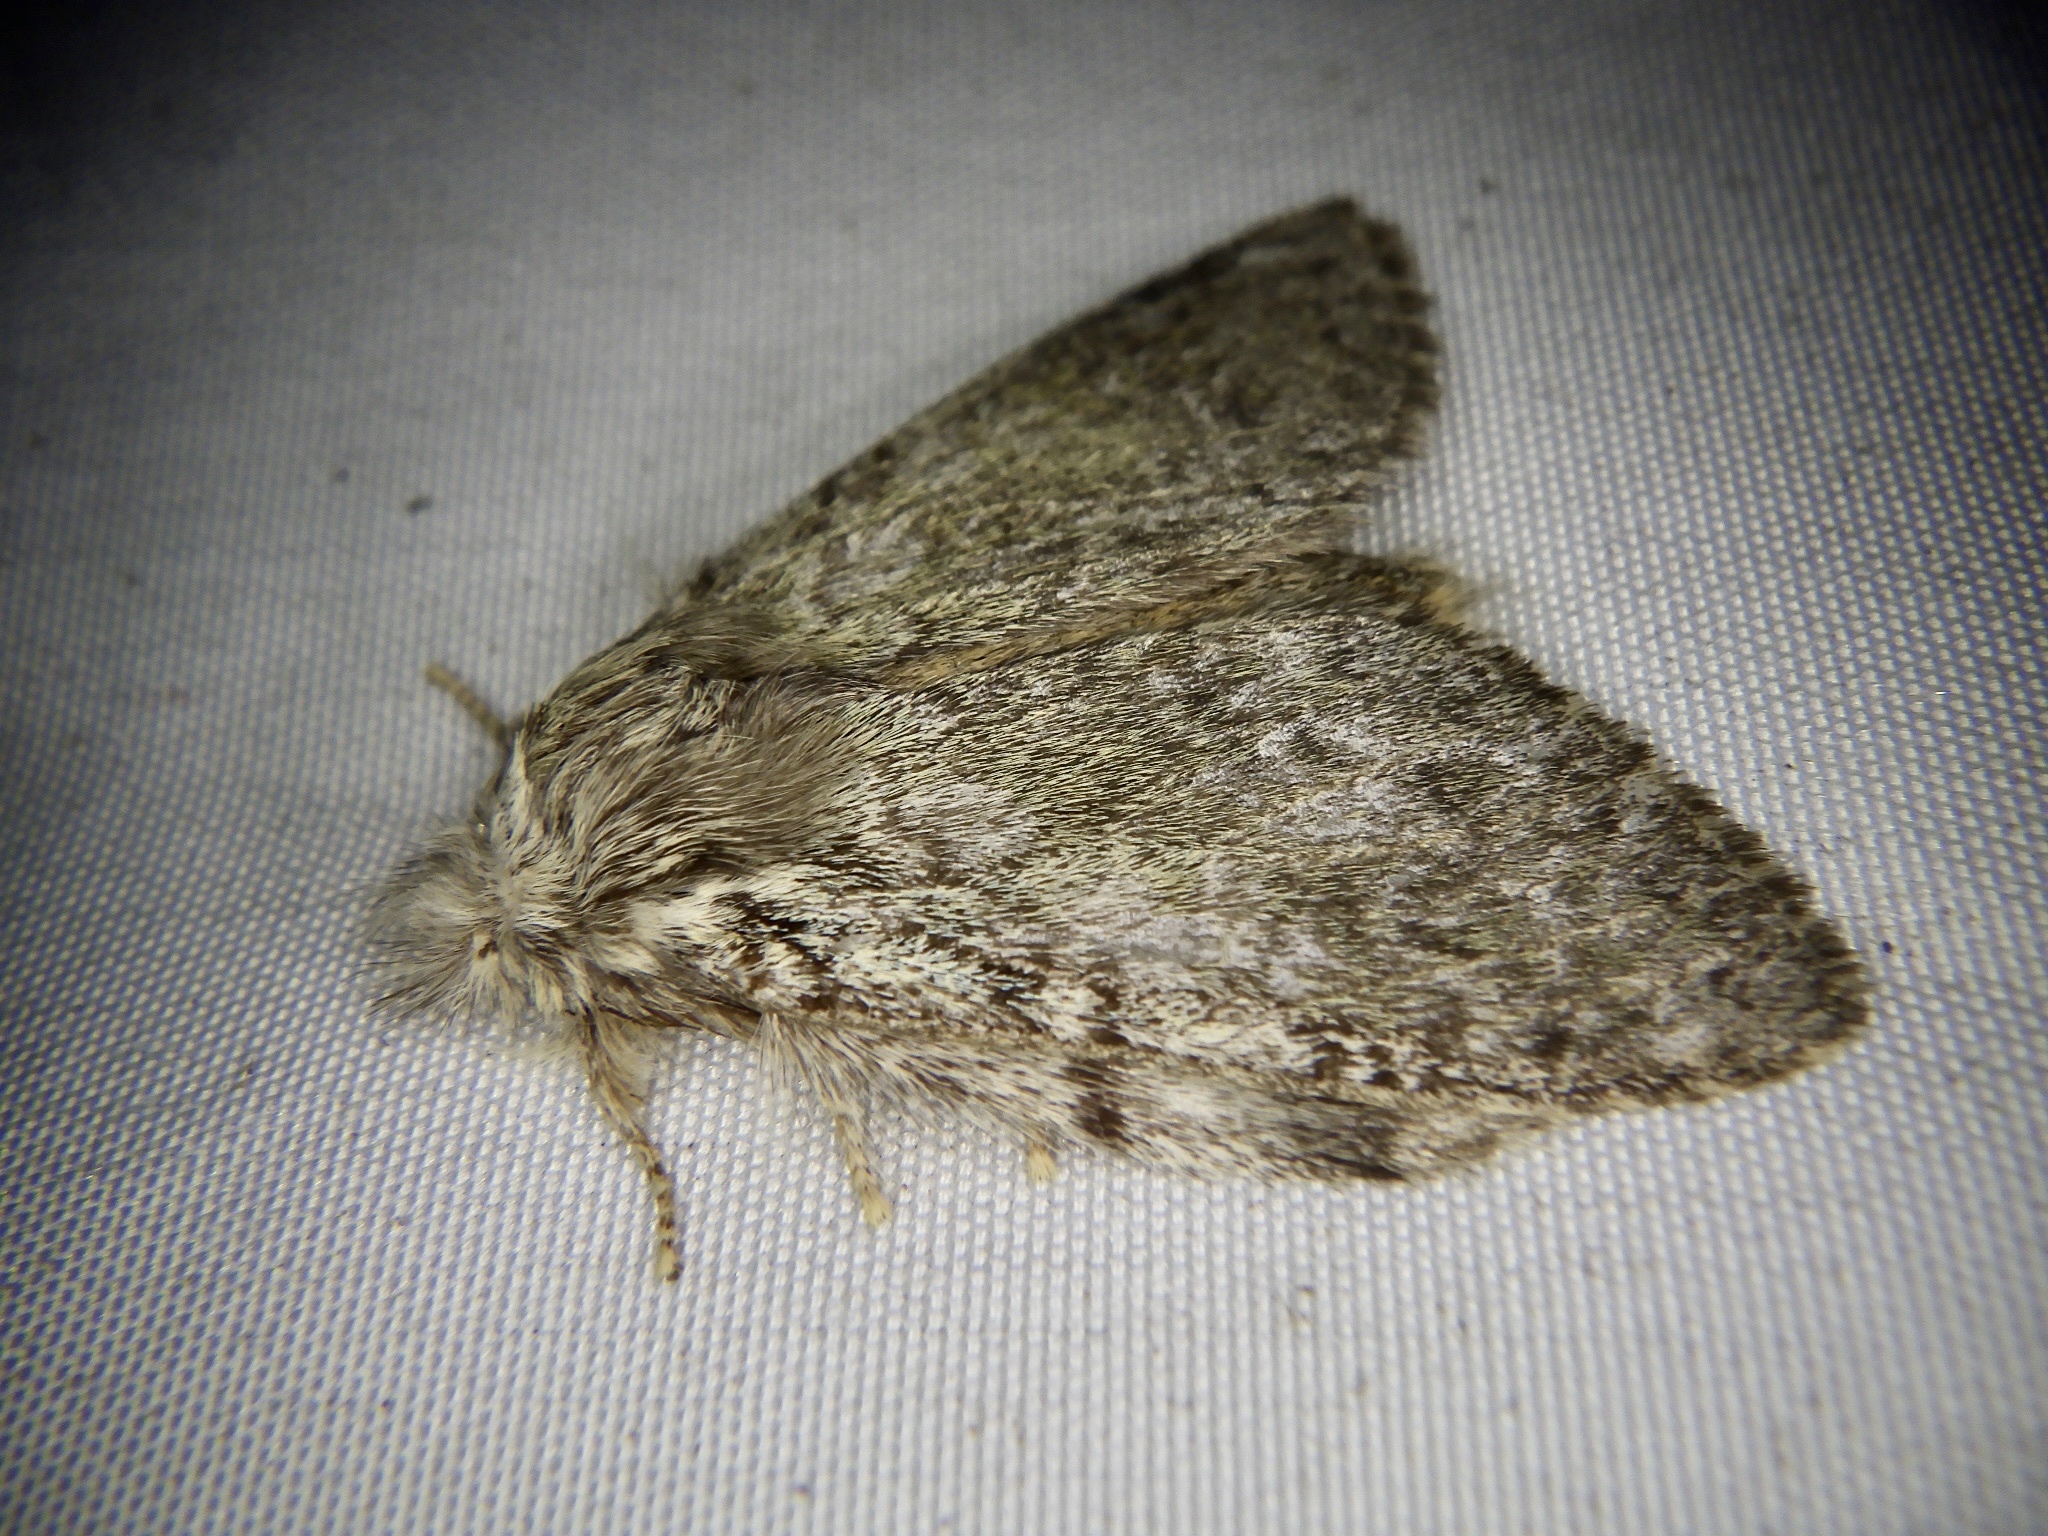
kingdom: Animalia
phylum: Arthropoda
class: Insecta
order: Lepidoptera
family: Notodontidae
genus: Syntypistis
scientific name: Syntypistis punctatella
